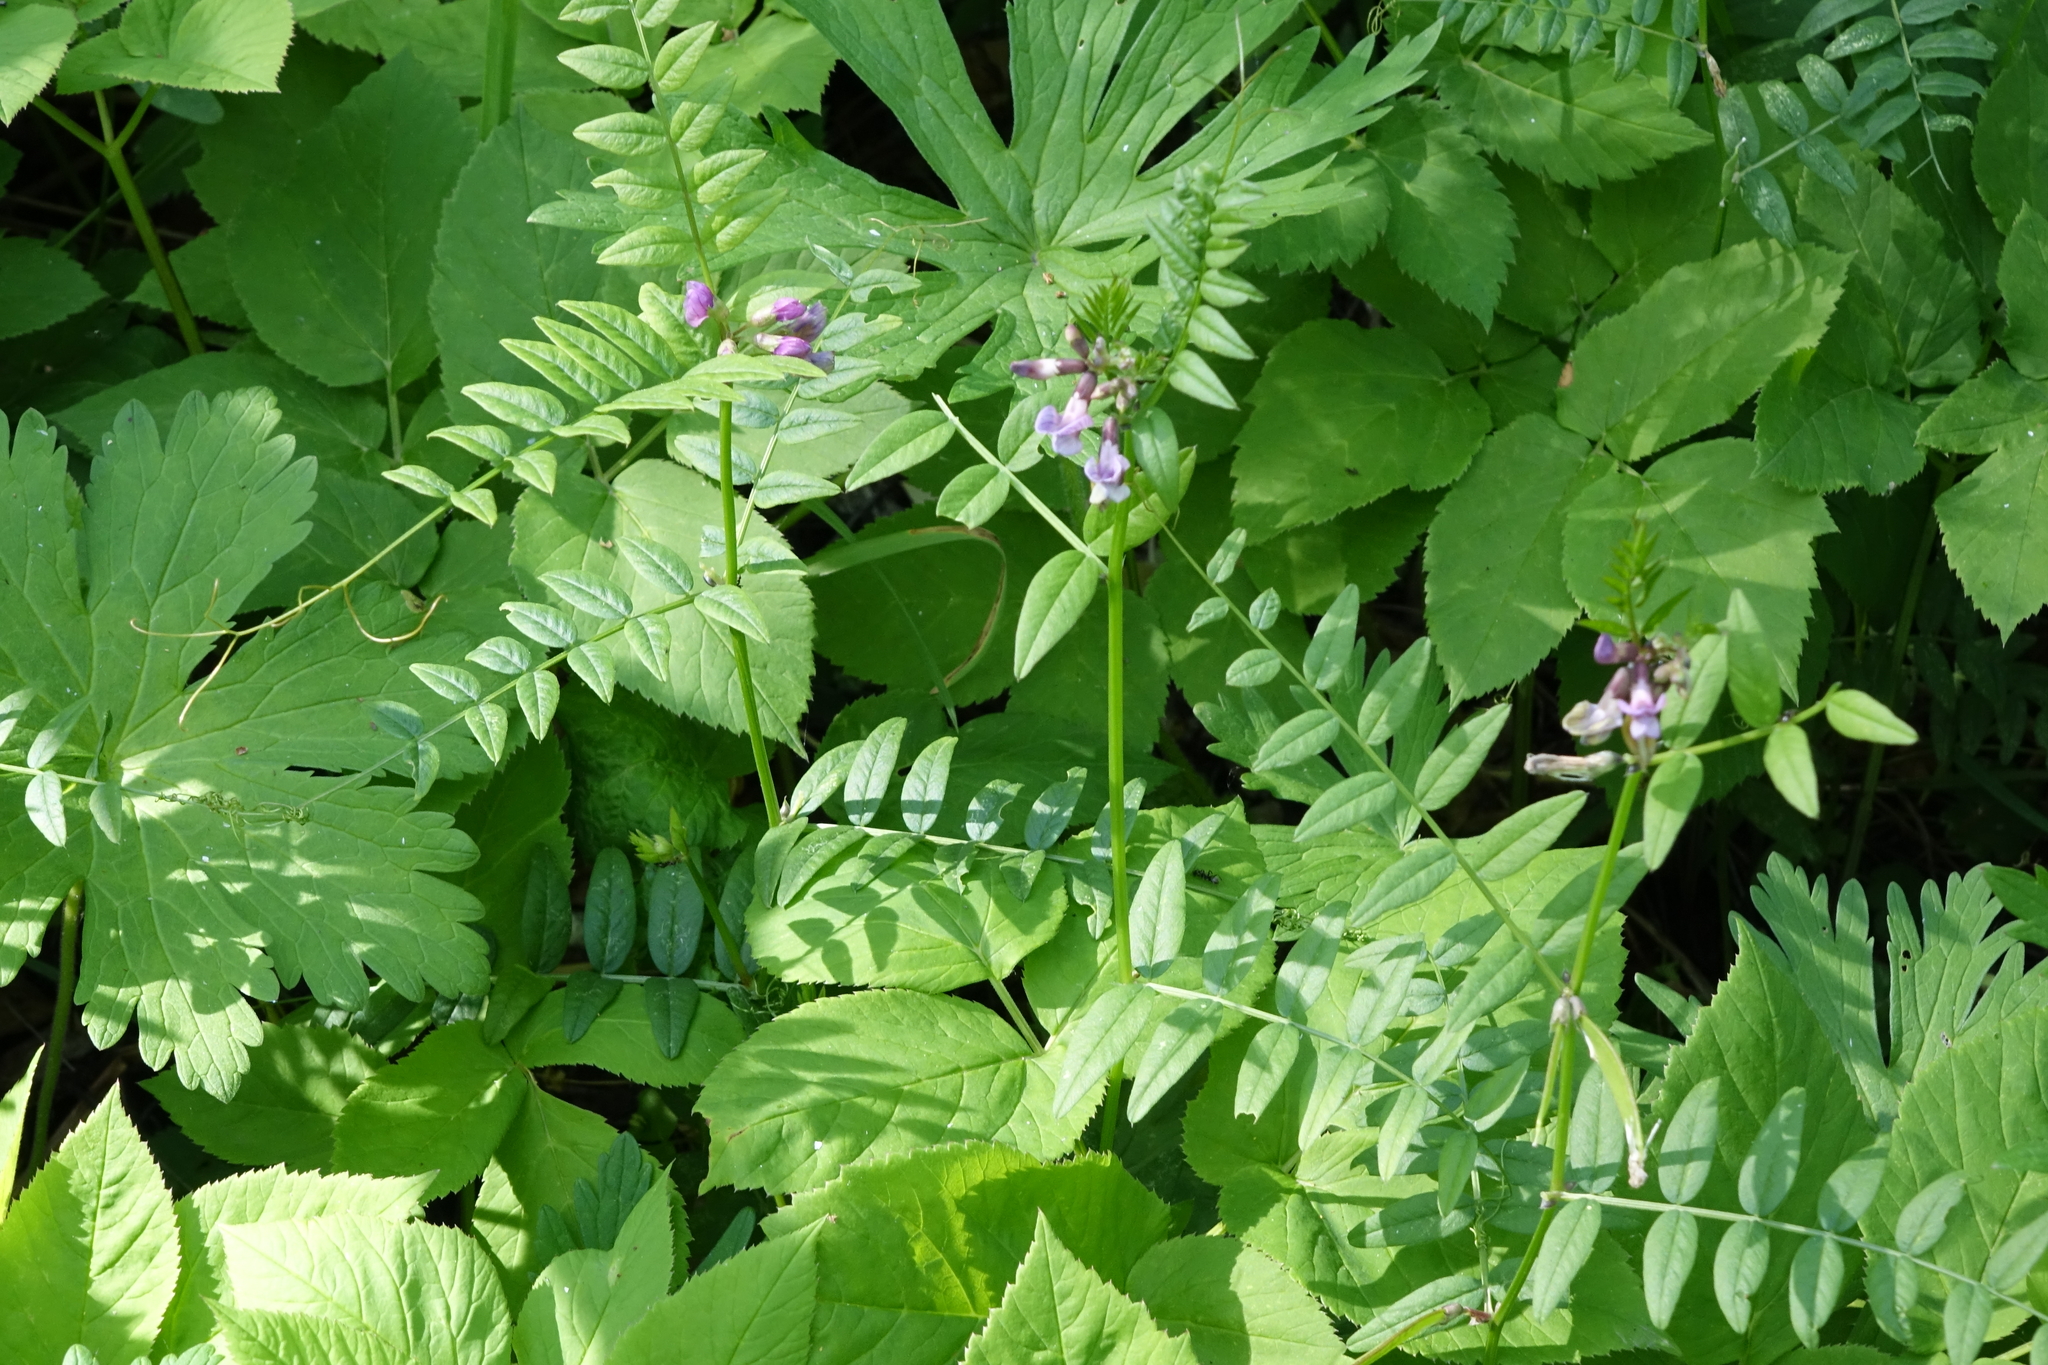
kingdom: Plantae
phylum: Tracheophyta
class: Magnoliopsida
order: Fabales
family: Fabaceae
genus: Vicia
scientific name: Vicia sepium
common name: Bush vetch
